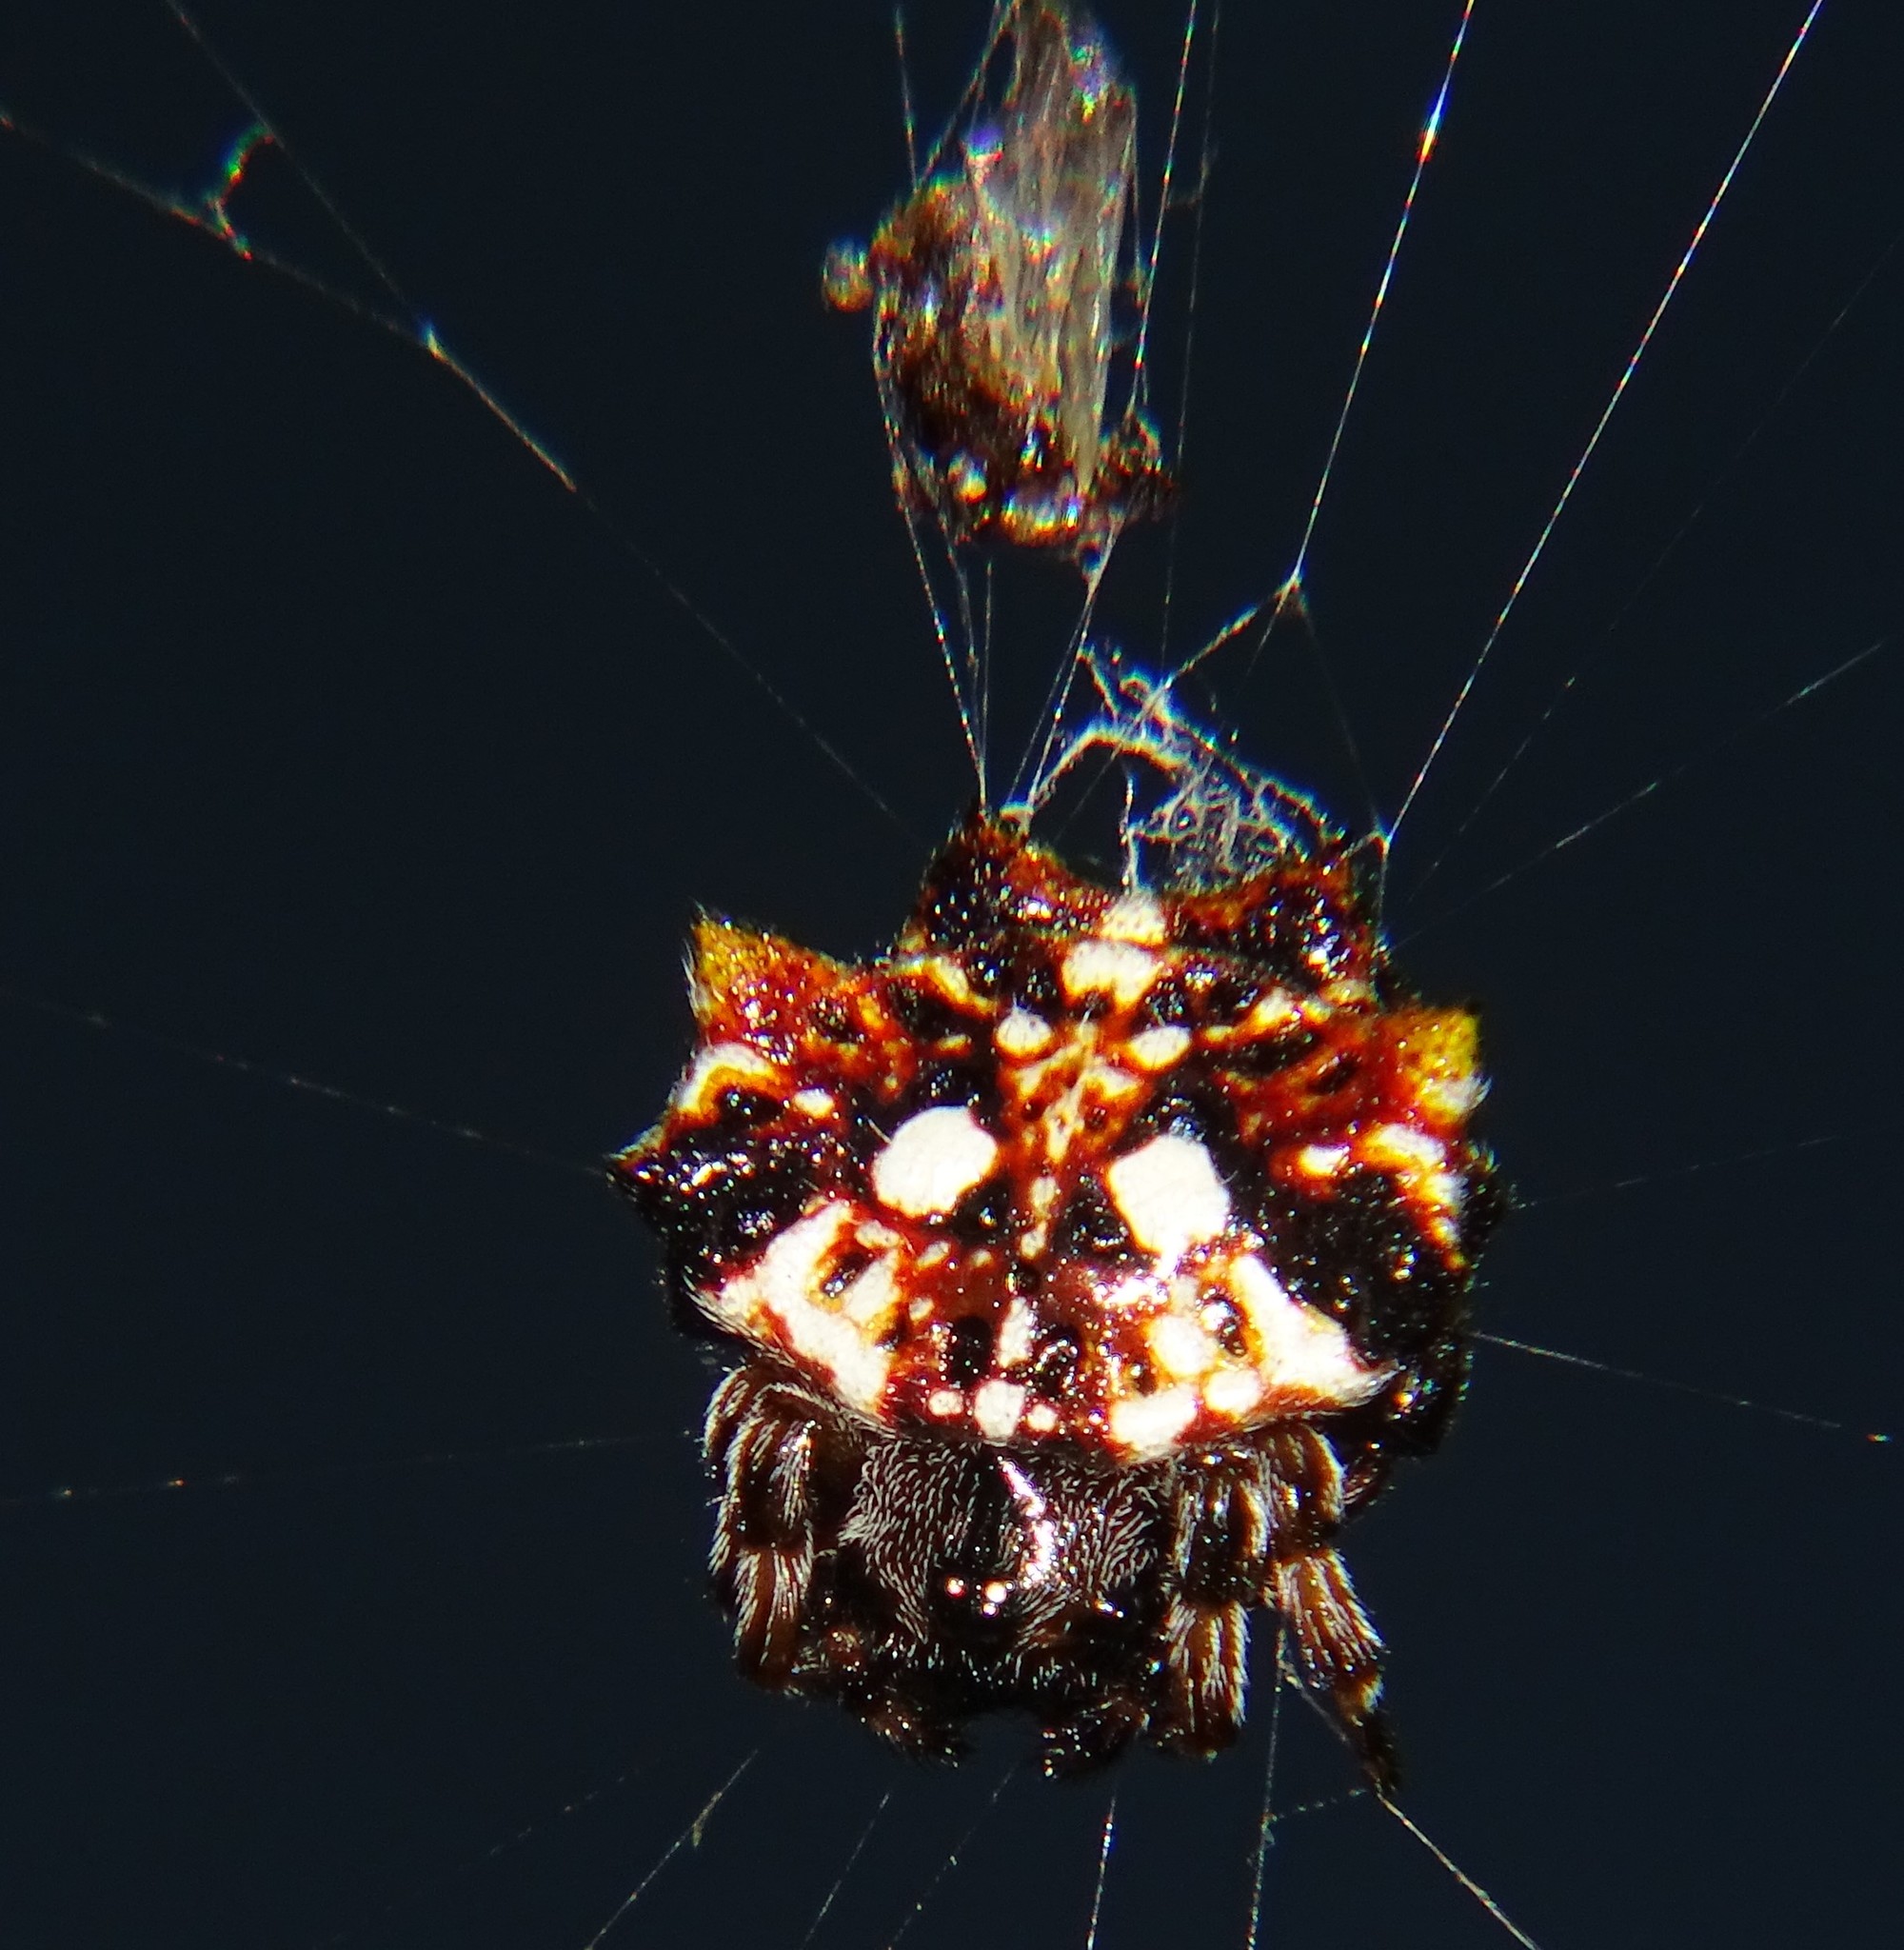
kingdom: Animalia
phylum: Arthropoda
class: Arachnida
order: Araneae
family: Araneidae
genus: Thelacantha
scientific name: Thelacantha brevispina
